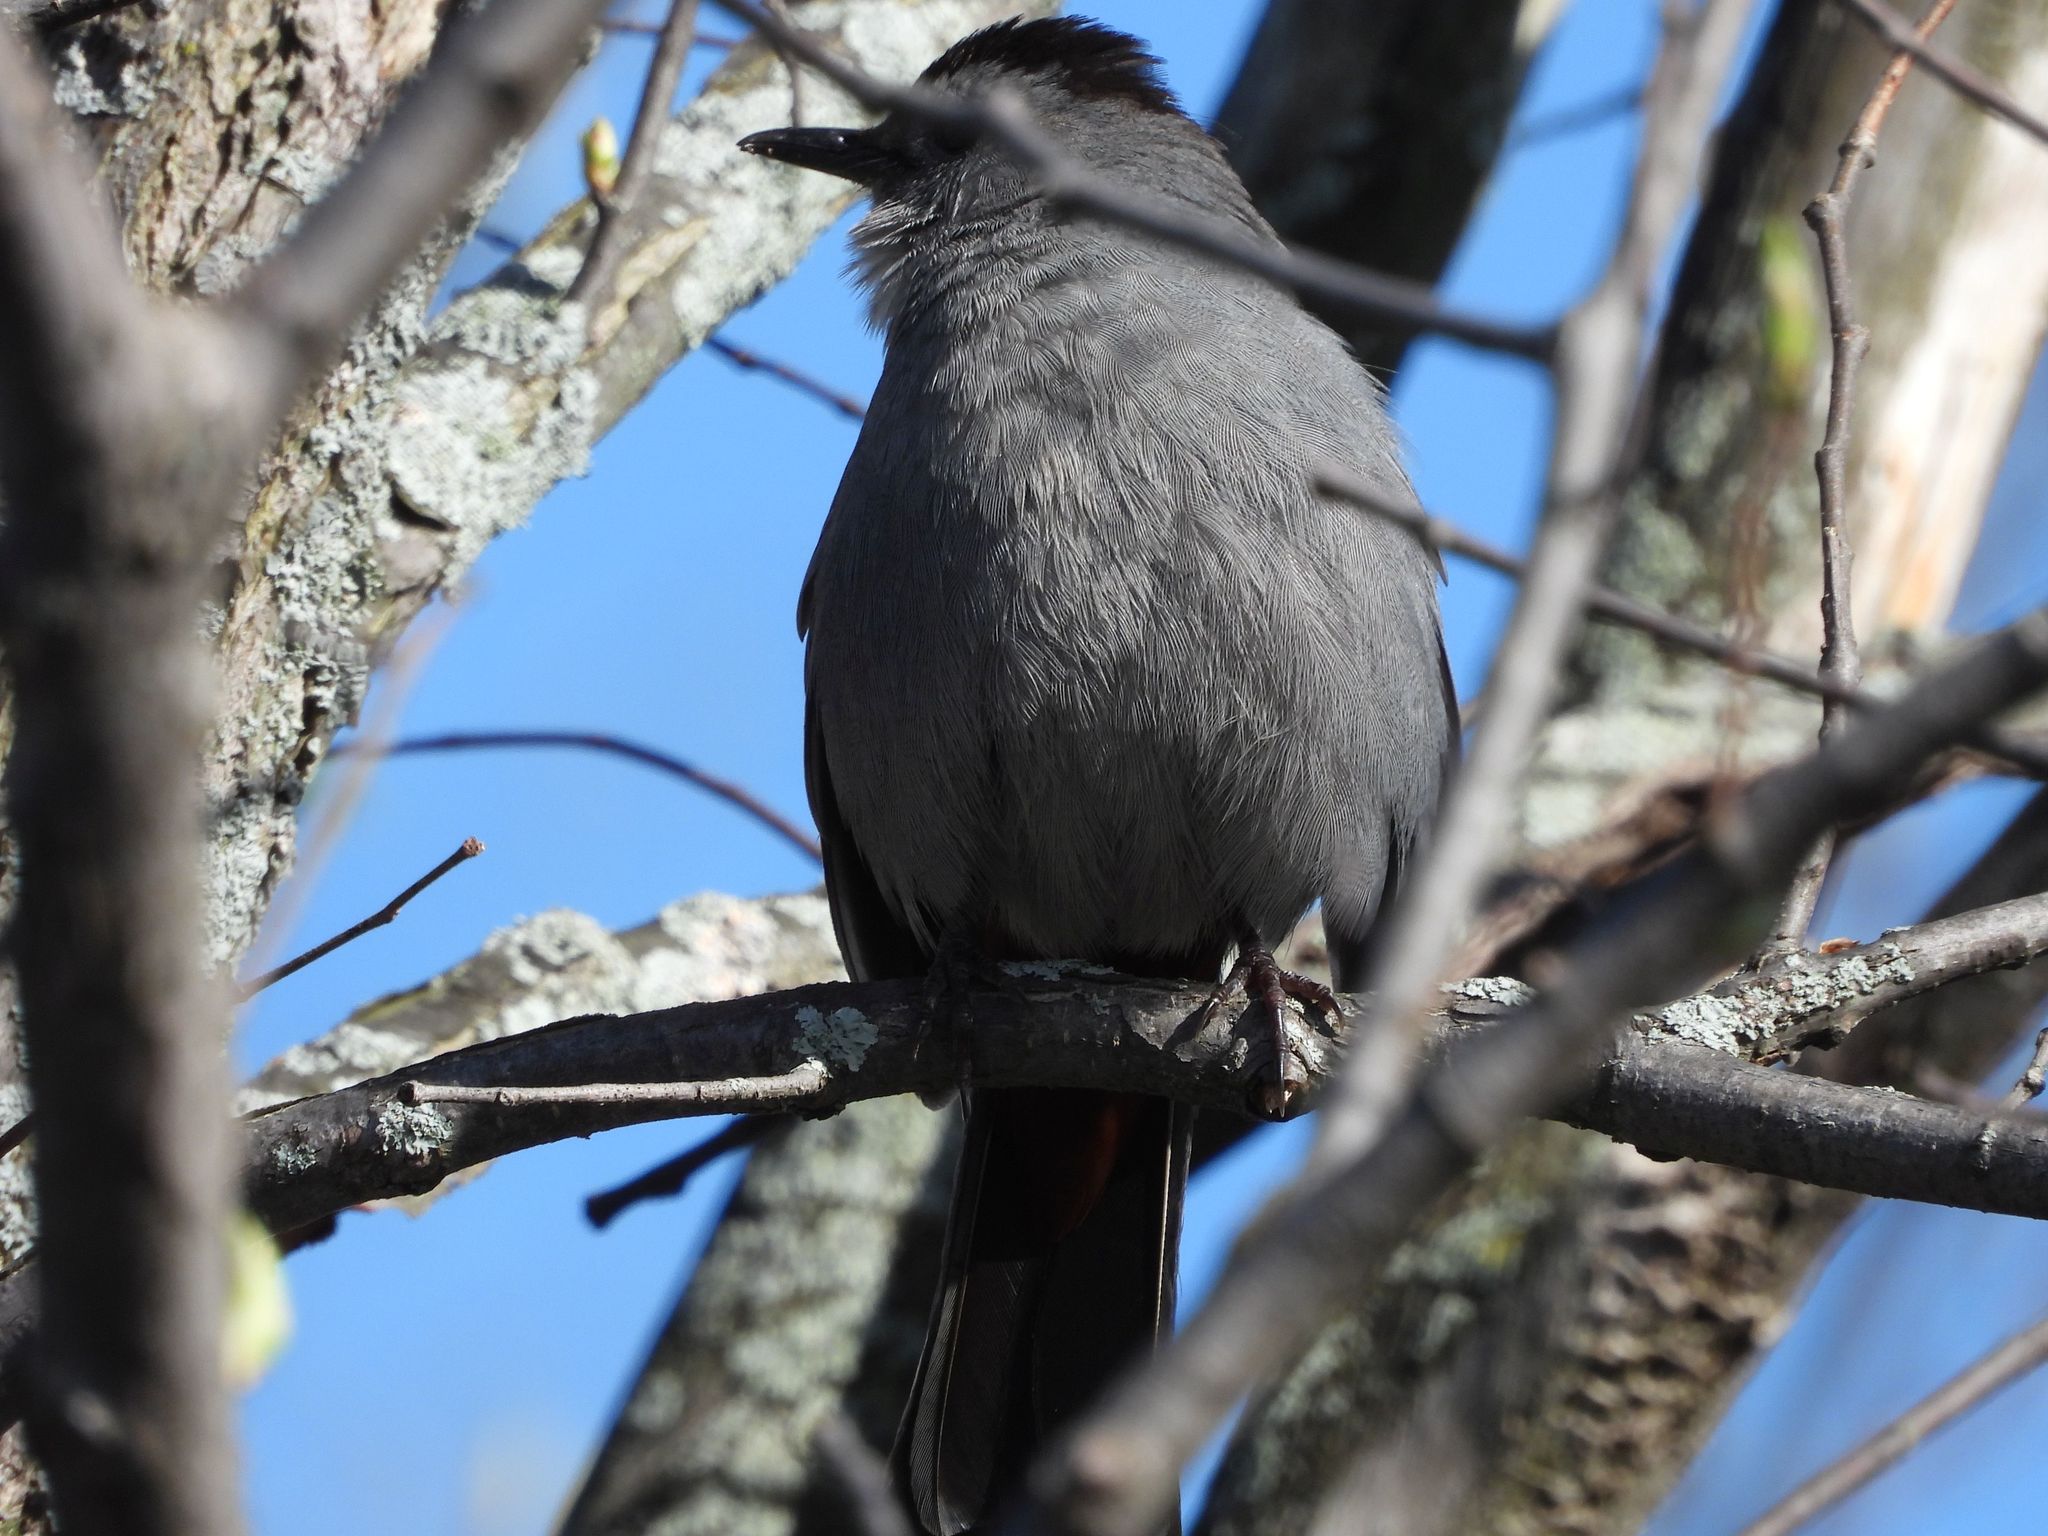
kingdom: Animalia
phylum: Chordata
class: Aves
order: Passeriformes
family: Mimidae
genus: Dumetella
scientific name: Dumetella carolinensis
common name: Gray catbird
